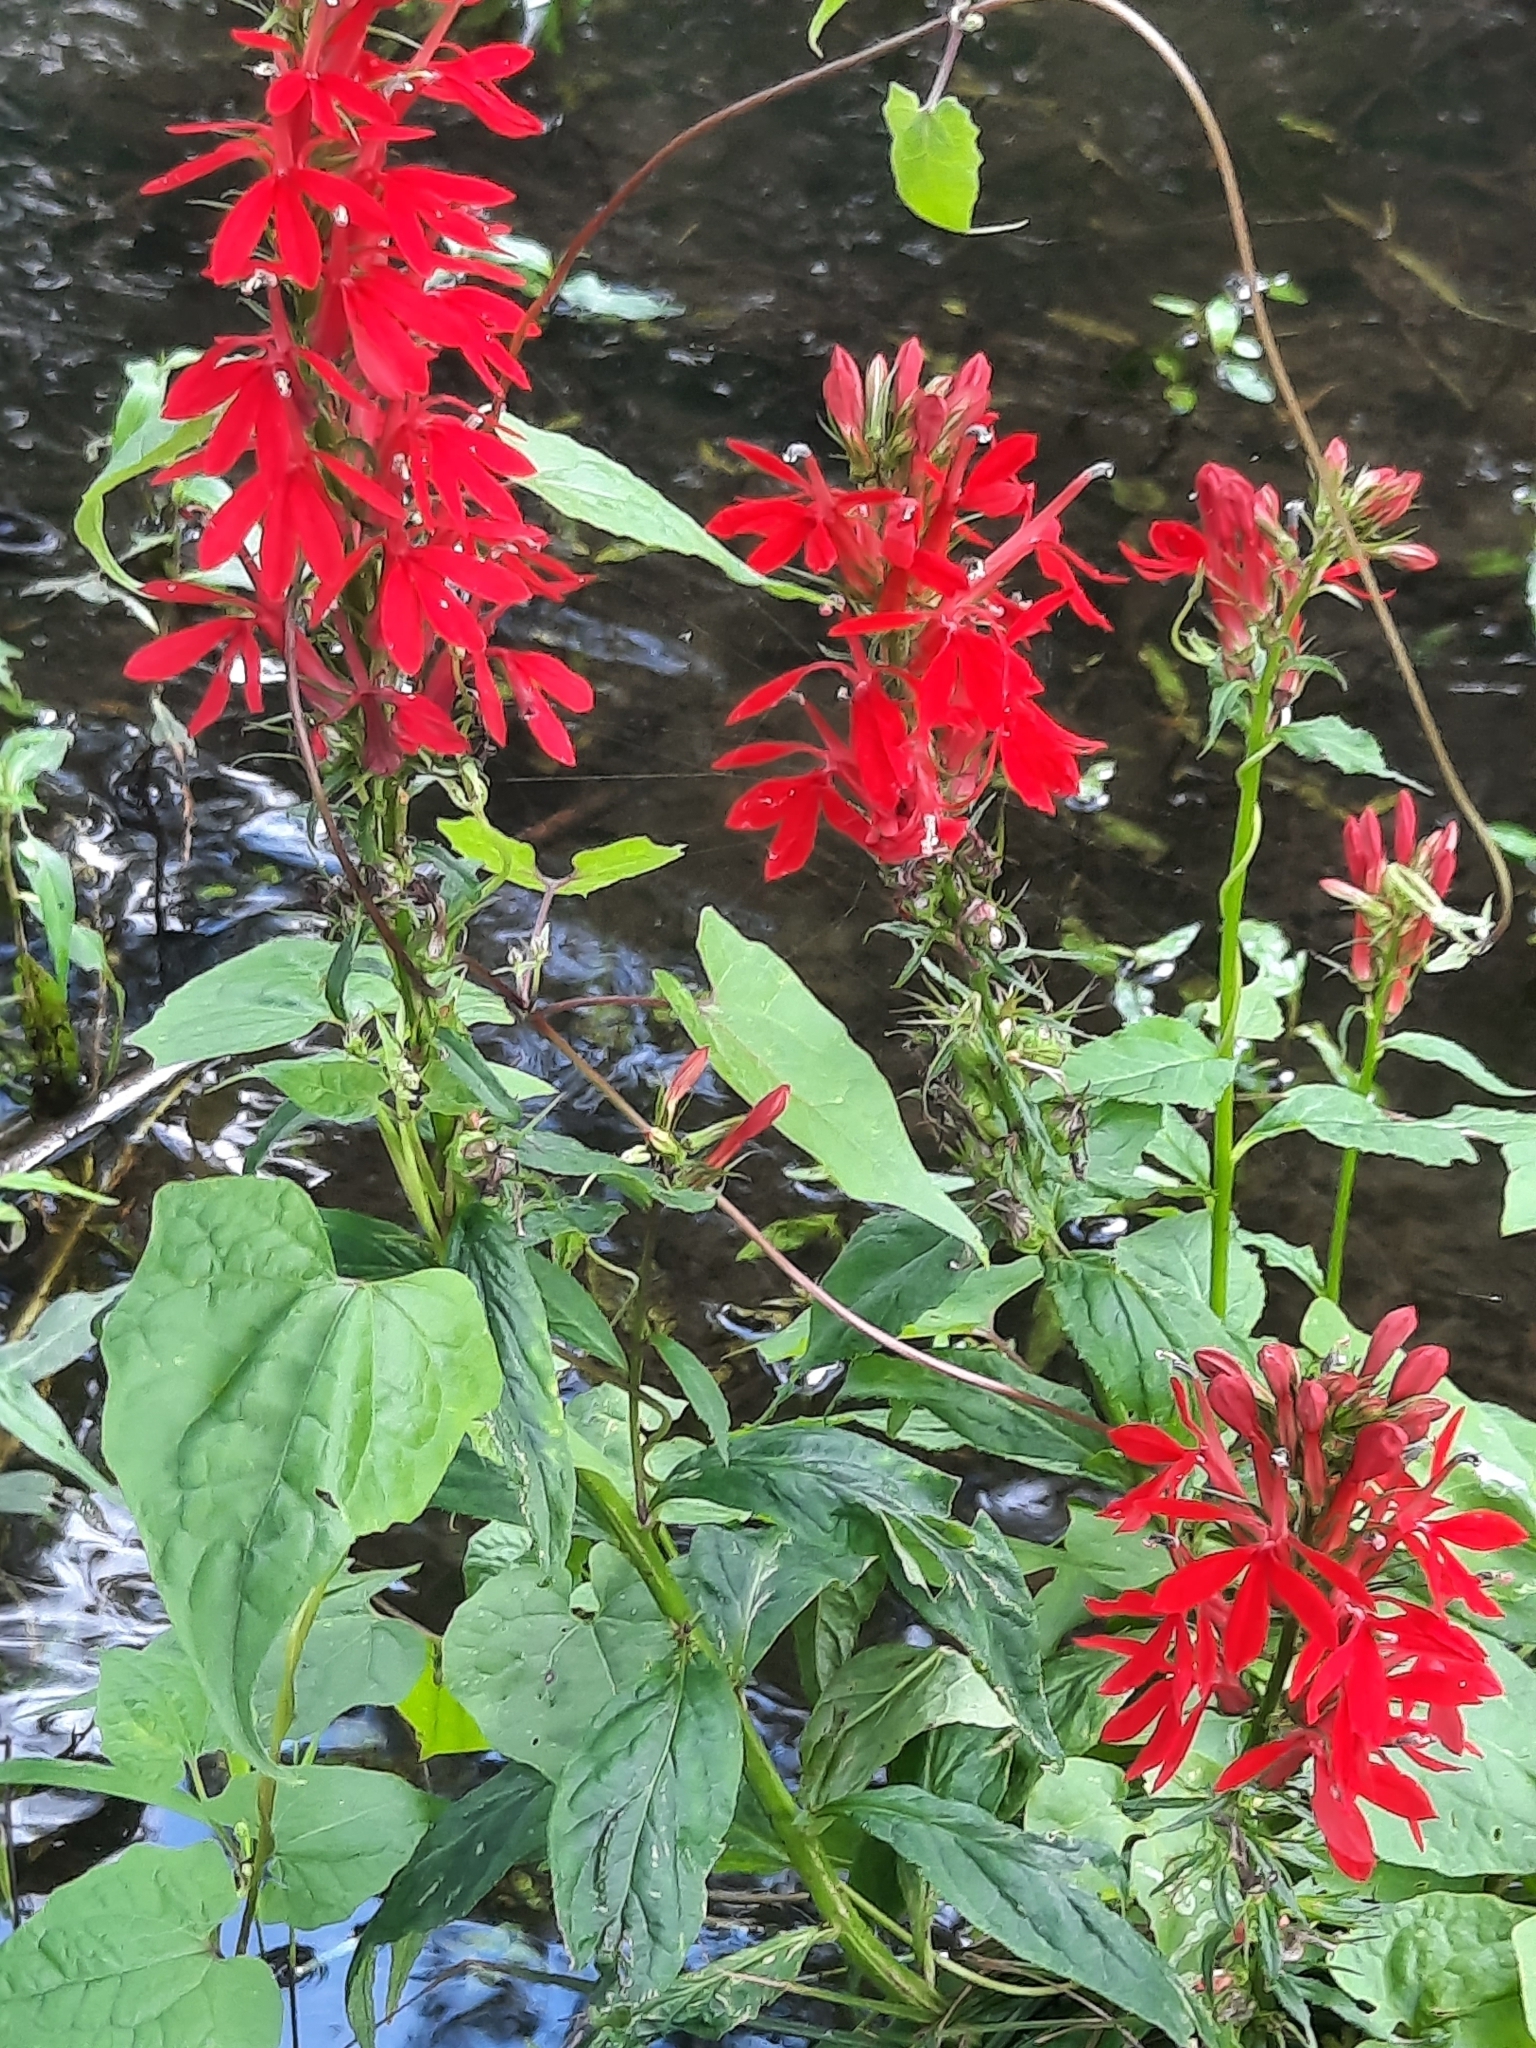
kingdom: Plantae
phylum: Tracheophyta
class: Magnoliopsida
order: Asterales
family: Campanulaceae
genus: Lobelia
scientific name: Lobelia cardinalis
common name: Cardinal flower
